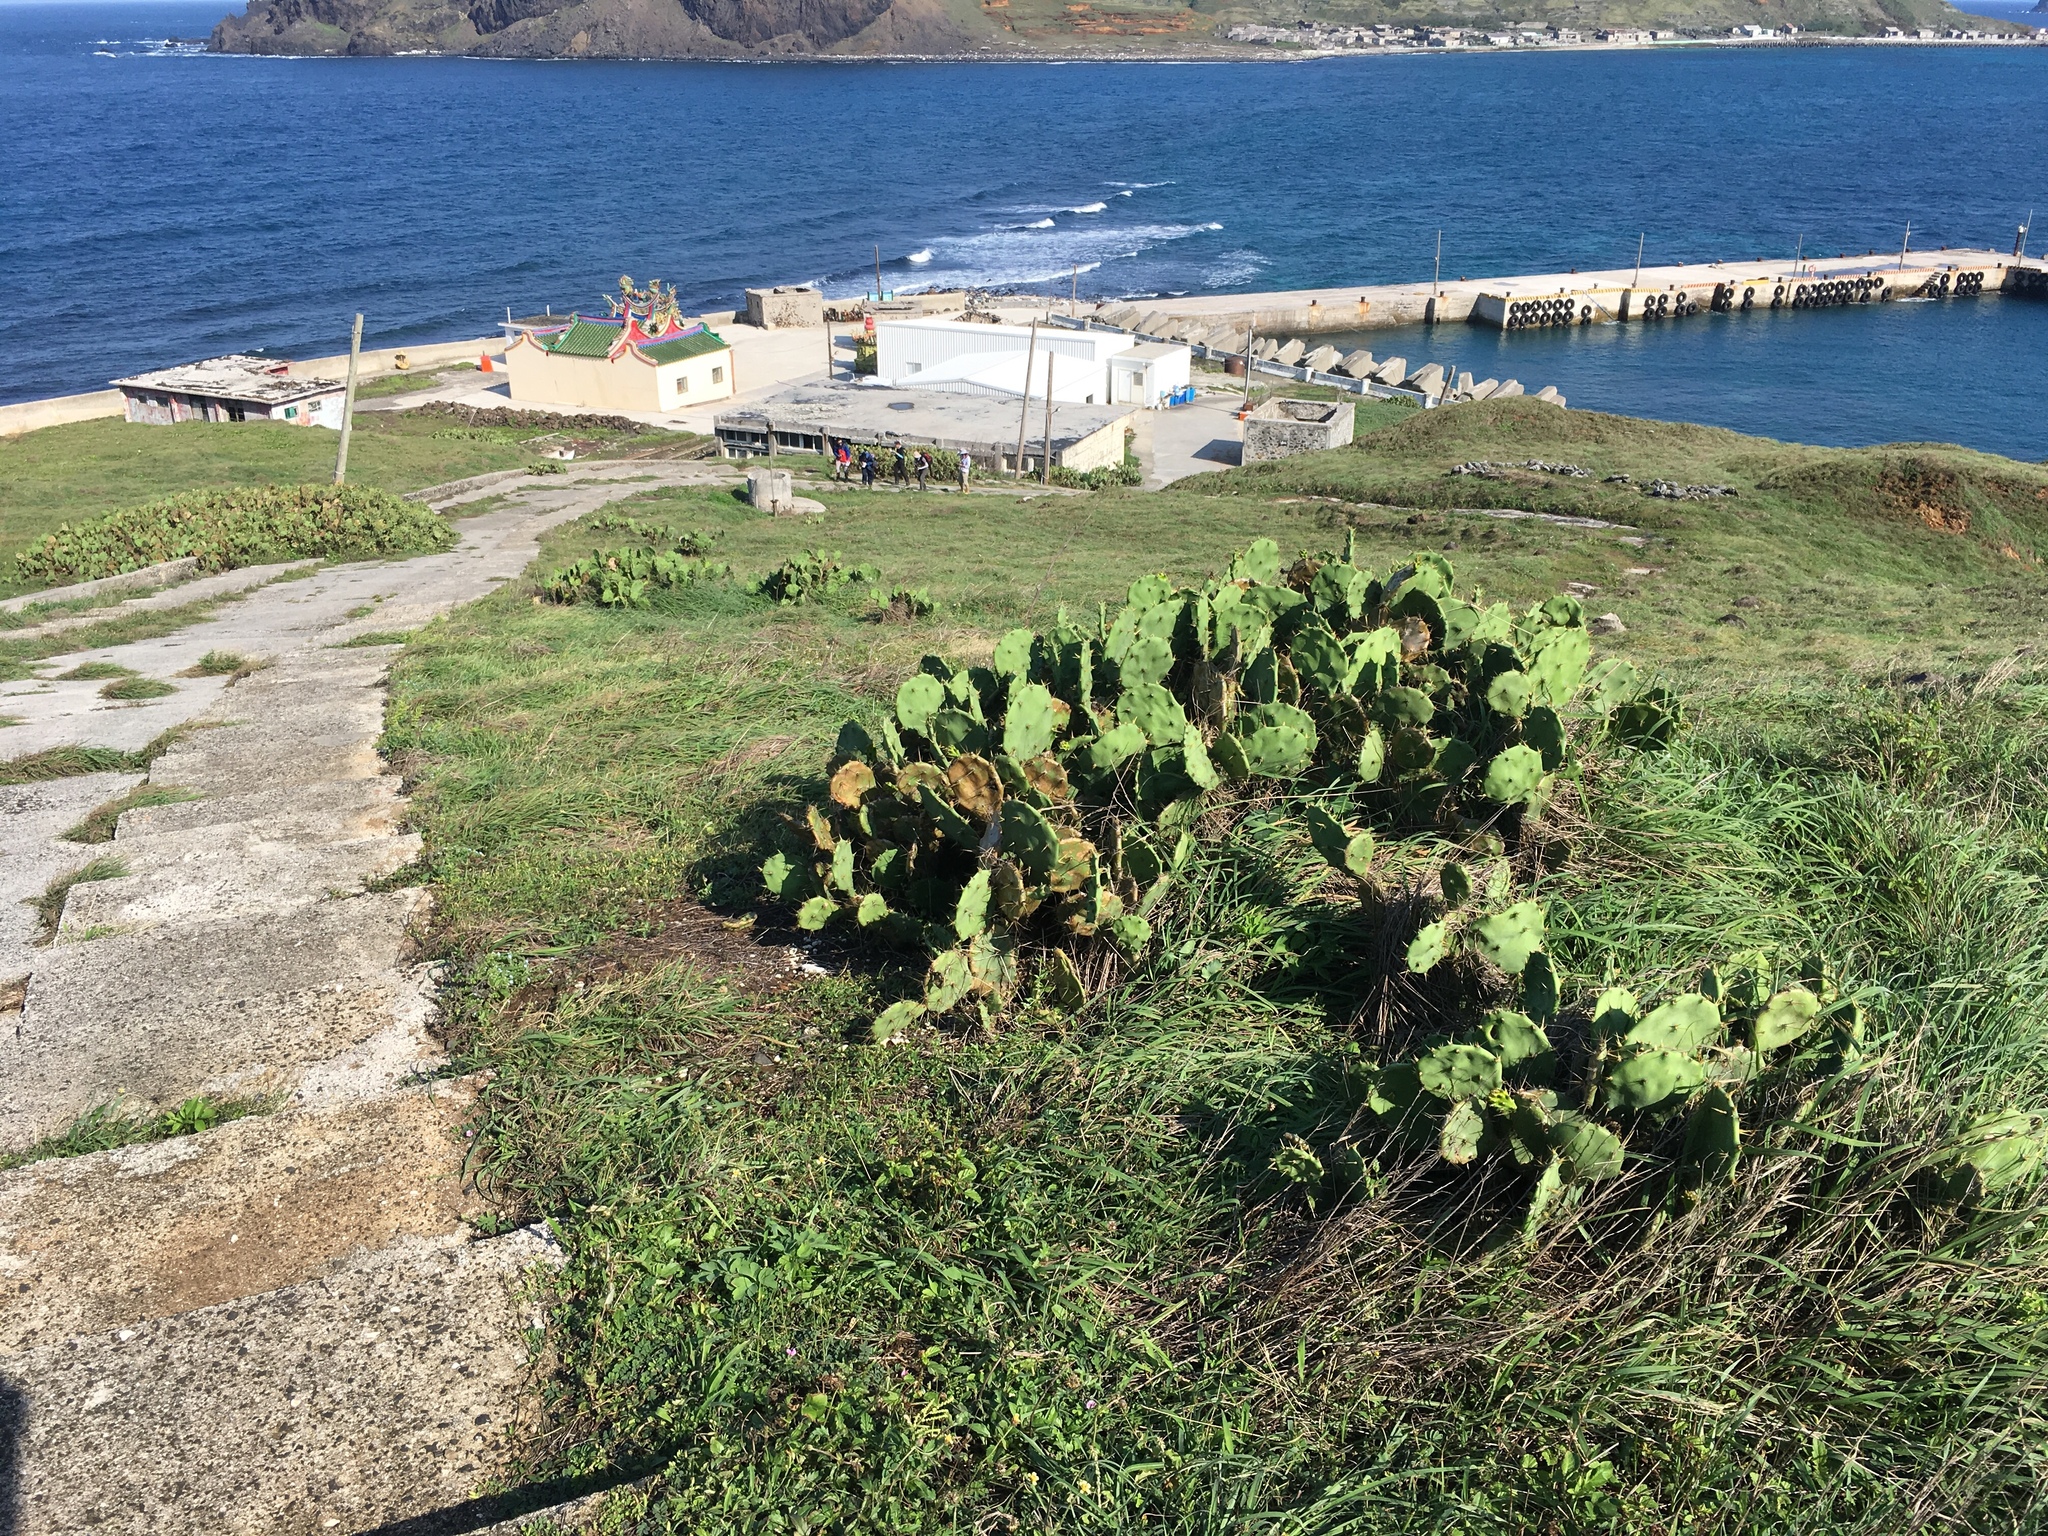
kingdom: Plantae
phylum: Tracheophyta
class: Magnoliopsida
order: Caryophyllales
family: Cactaceae
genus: Opuntia
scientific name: Opuntia stricta
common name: Erect pricklypear
